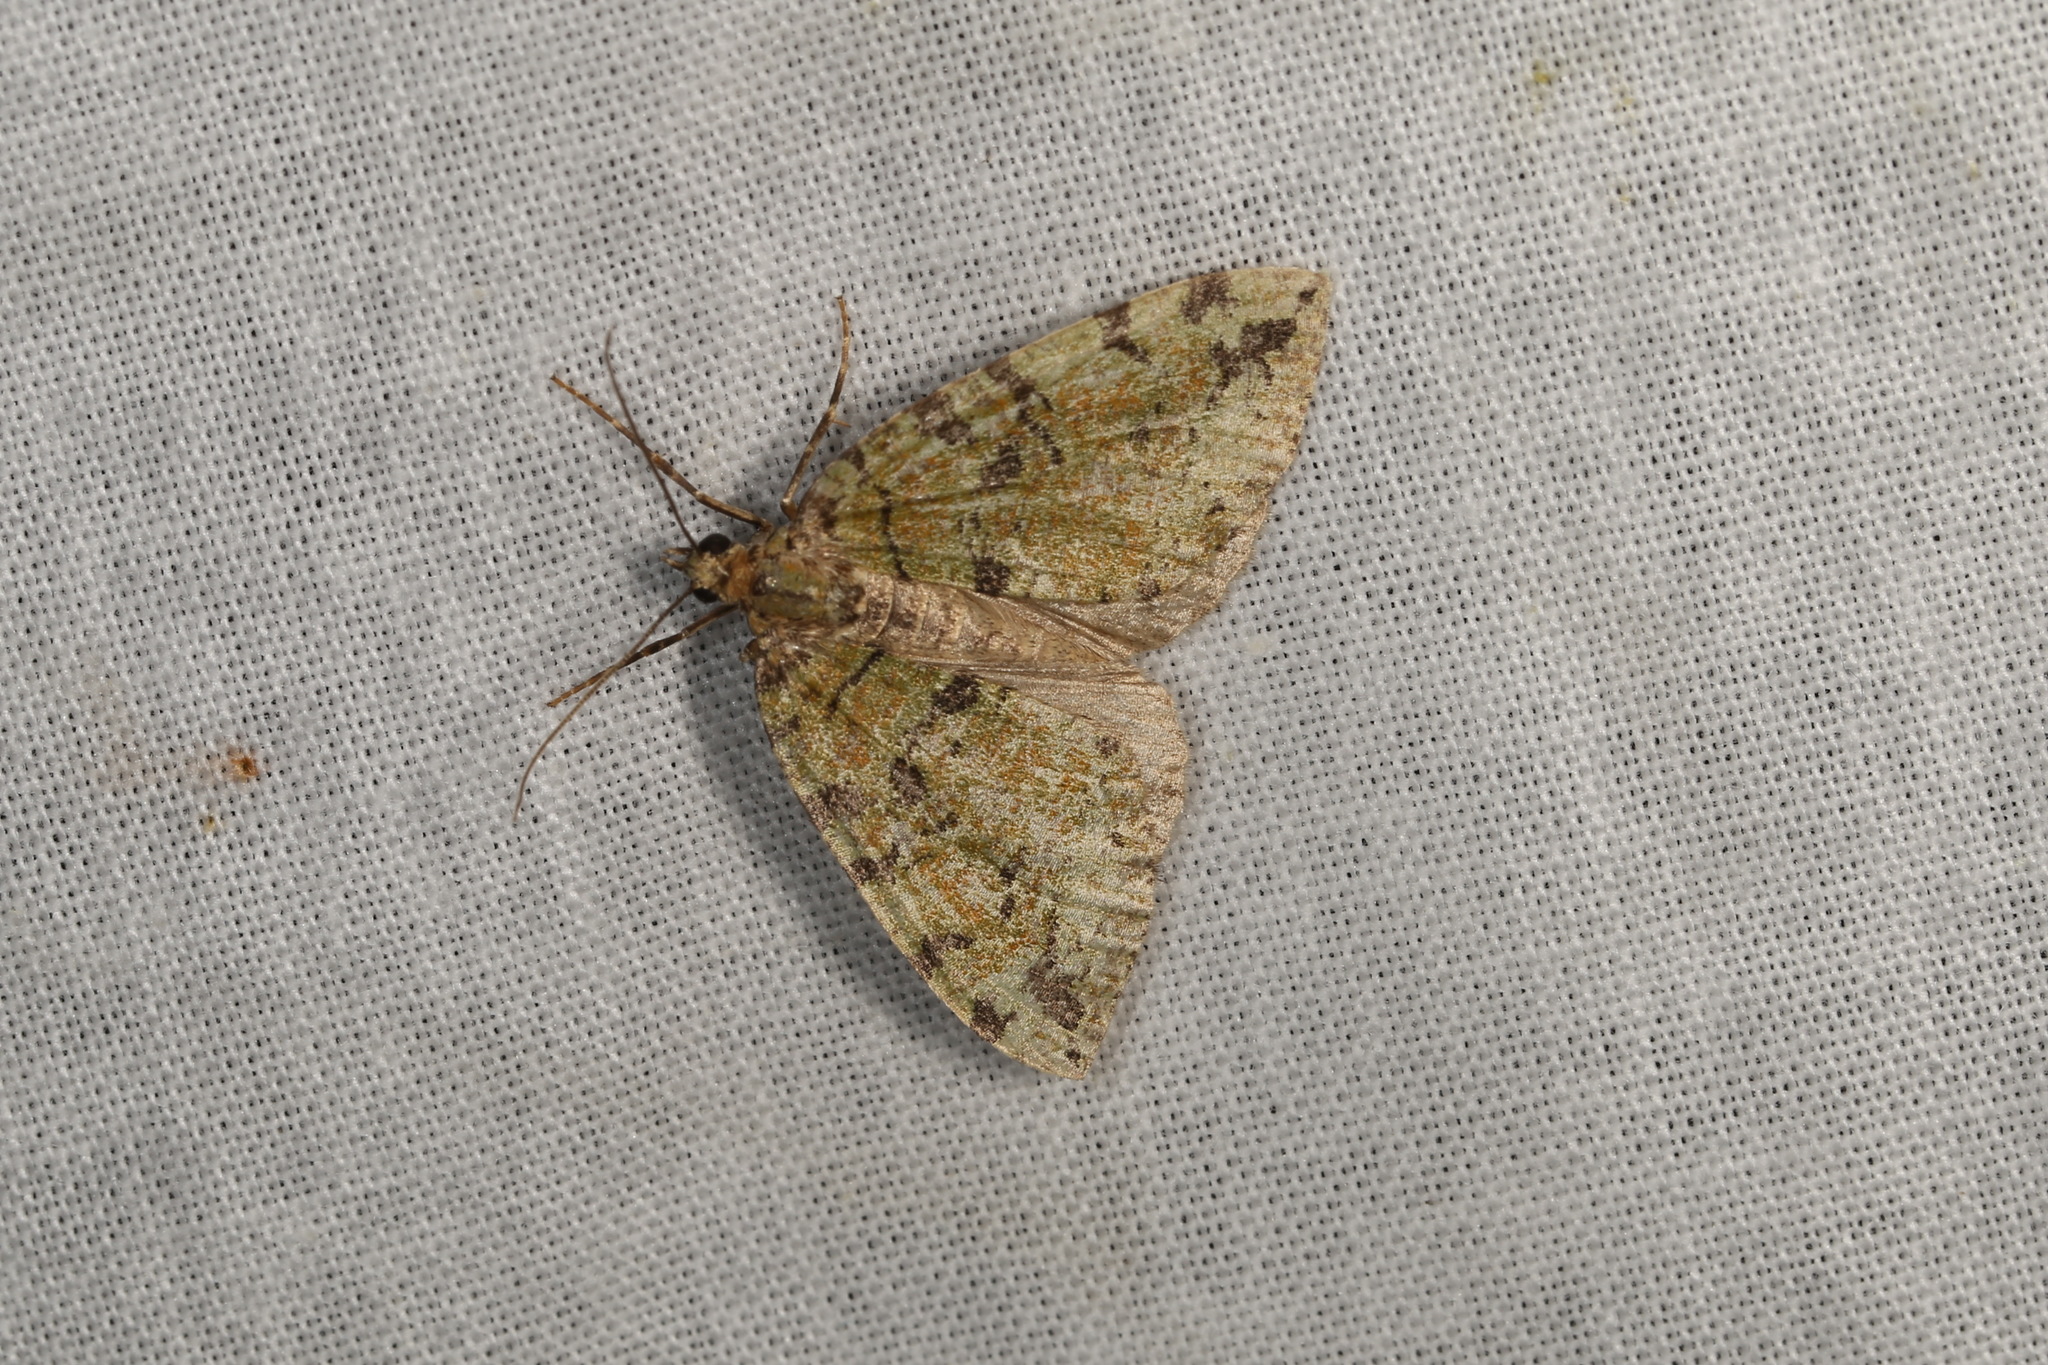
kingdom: Animalia
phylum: Arthropoda
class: Insecta
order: Lepidoptera
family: Geometridae
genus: Hydriomena
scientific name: Hydriomena furcata
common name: July highflyer
